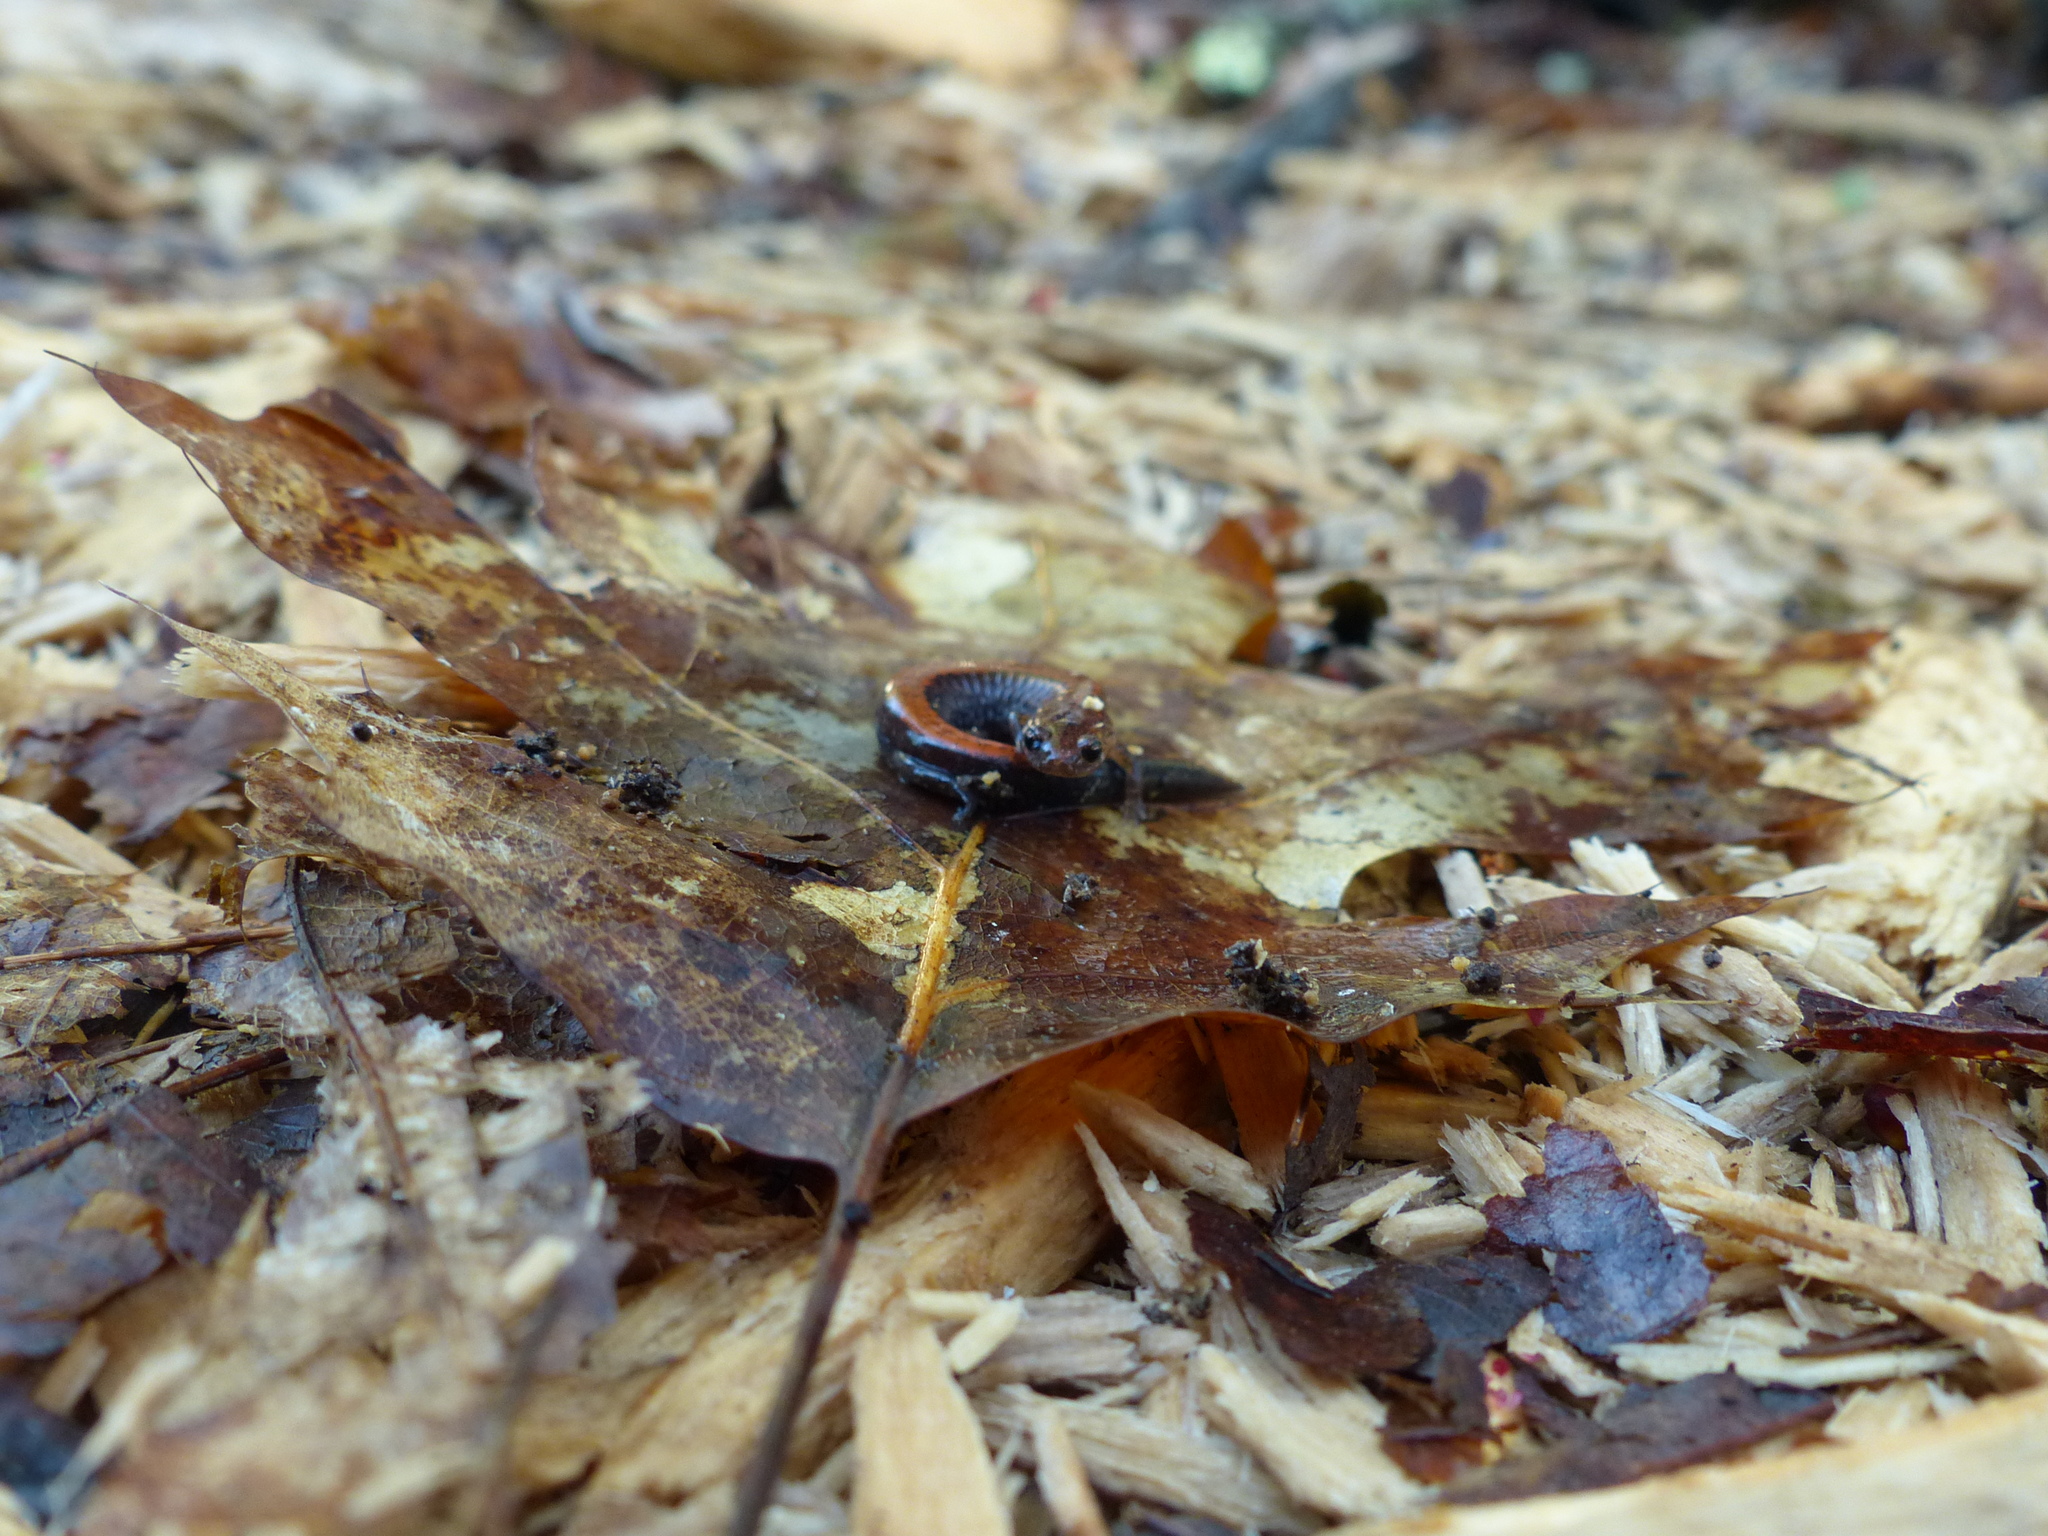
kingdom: Animalia
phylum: Chordata
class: Amphibia
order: Caudata
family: Plethodontidae
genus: Plethodon
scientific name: Plethodon serratus
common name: Southern red-backed salamander
